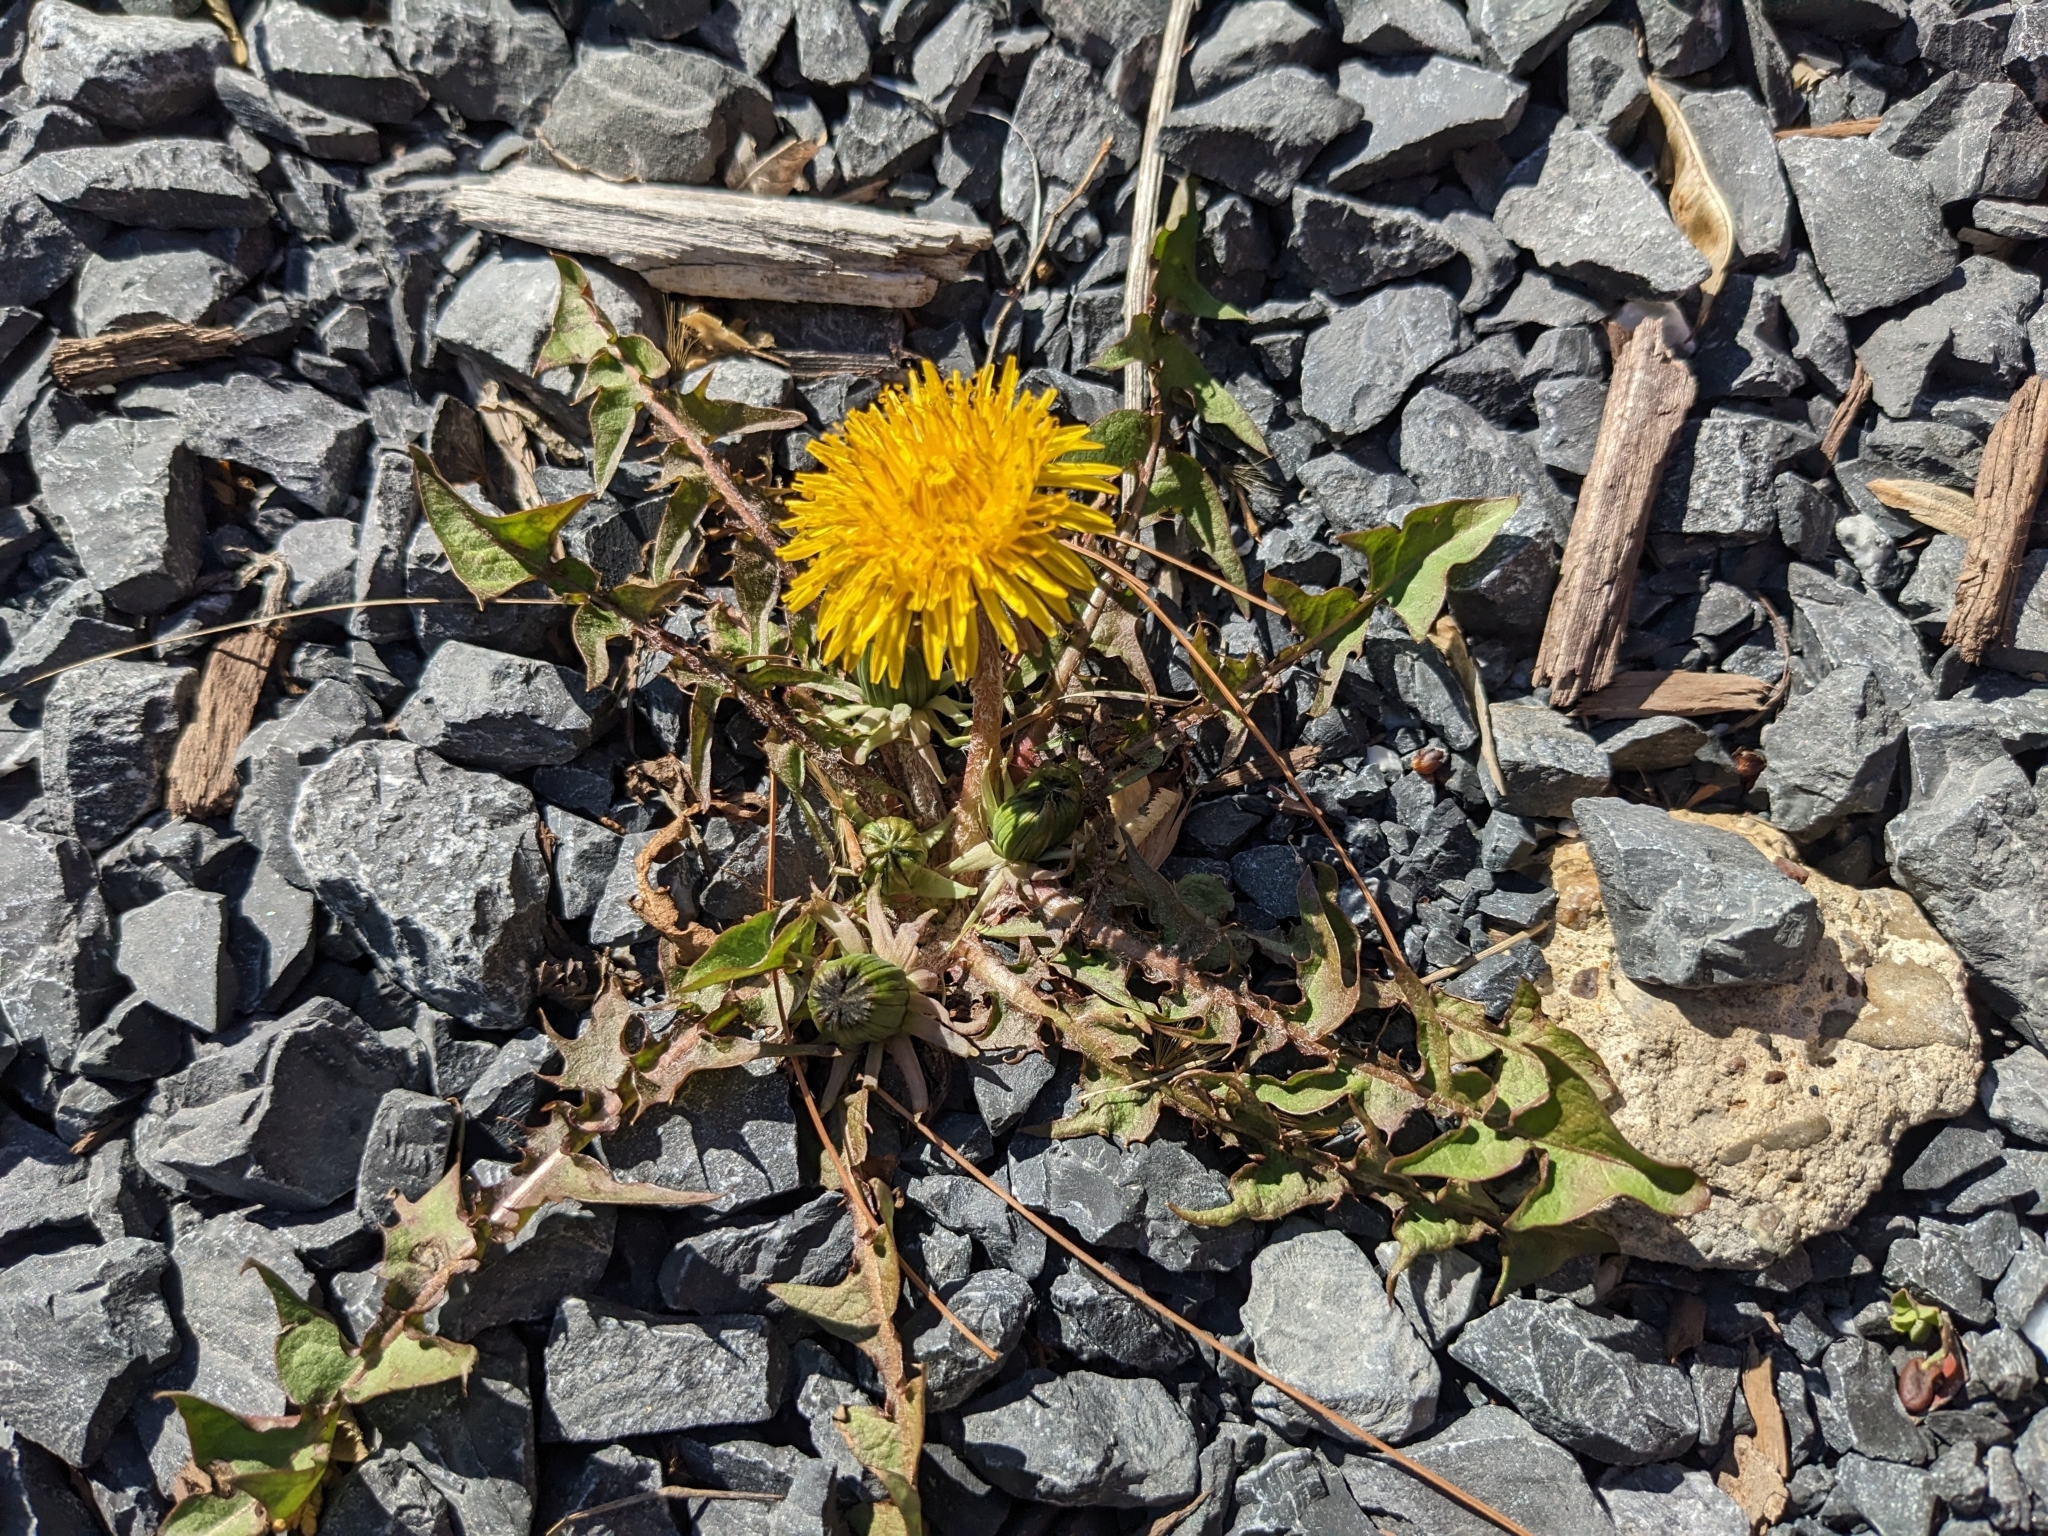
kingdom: Plantae
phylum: Tracheophyta
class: Magnoliopsida
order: Asterales
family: Asteraceae
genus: Taraxacum
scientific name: Taraxacum
